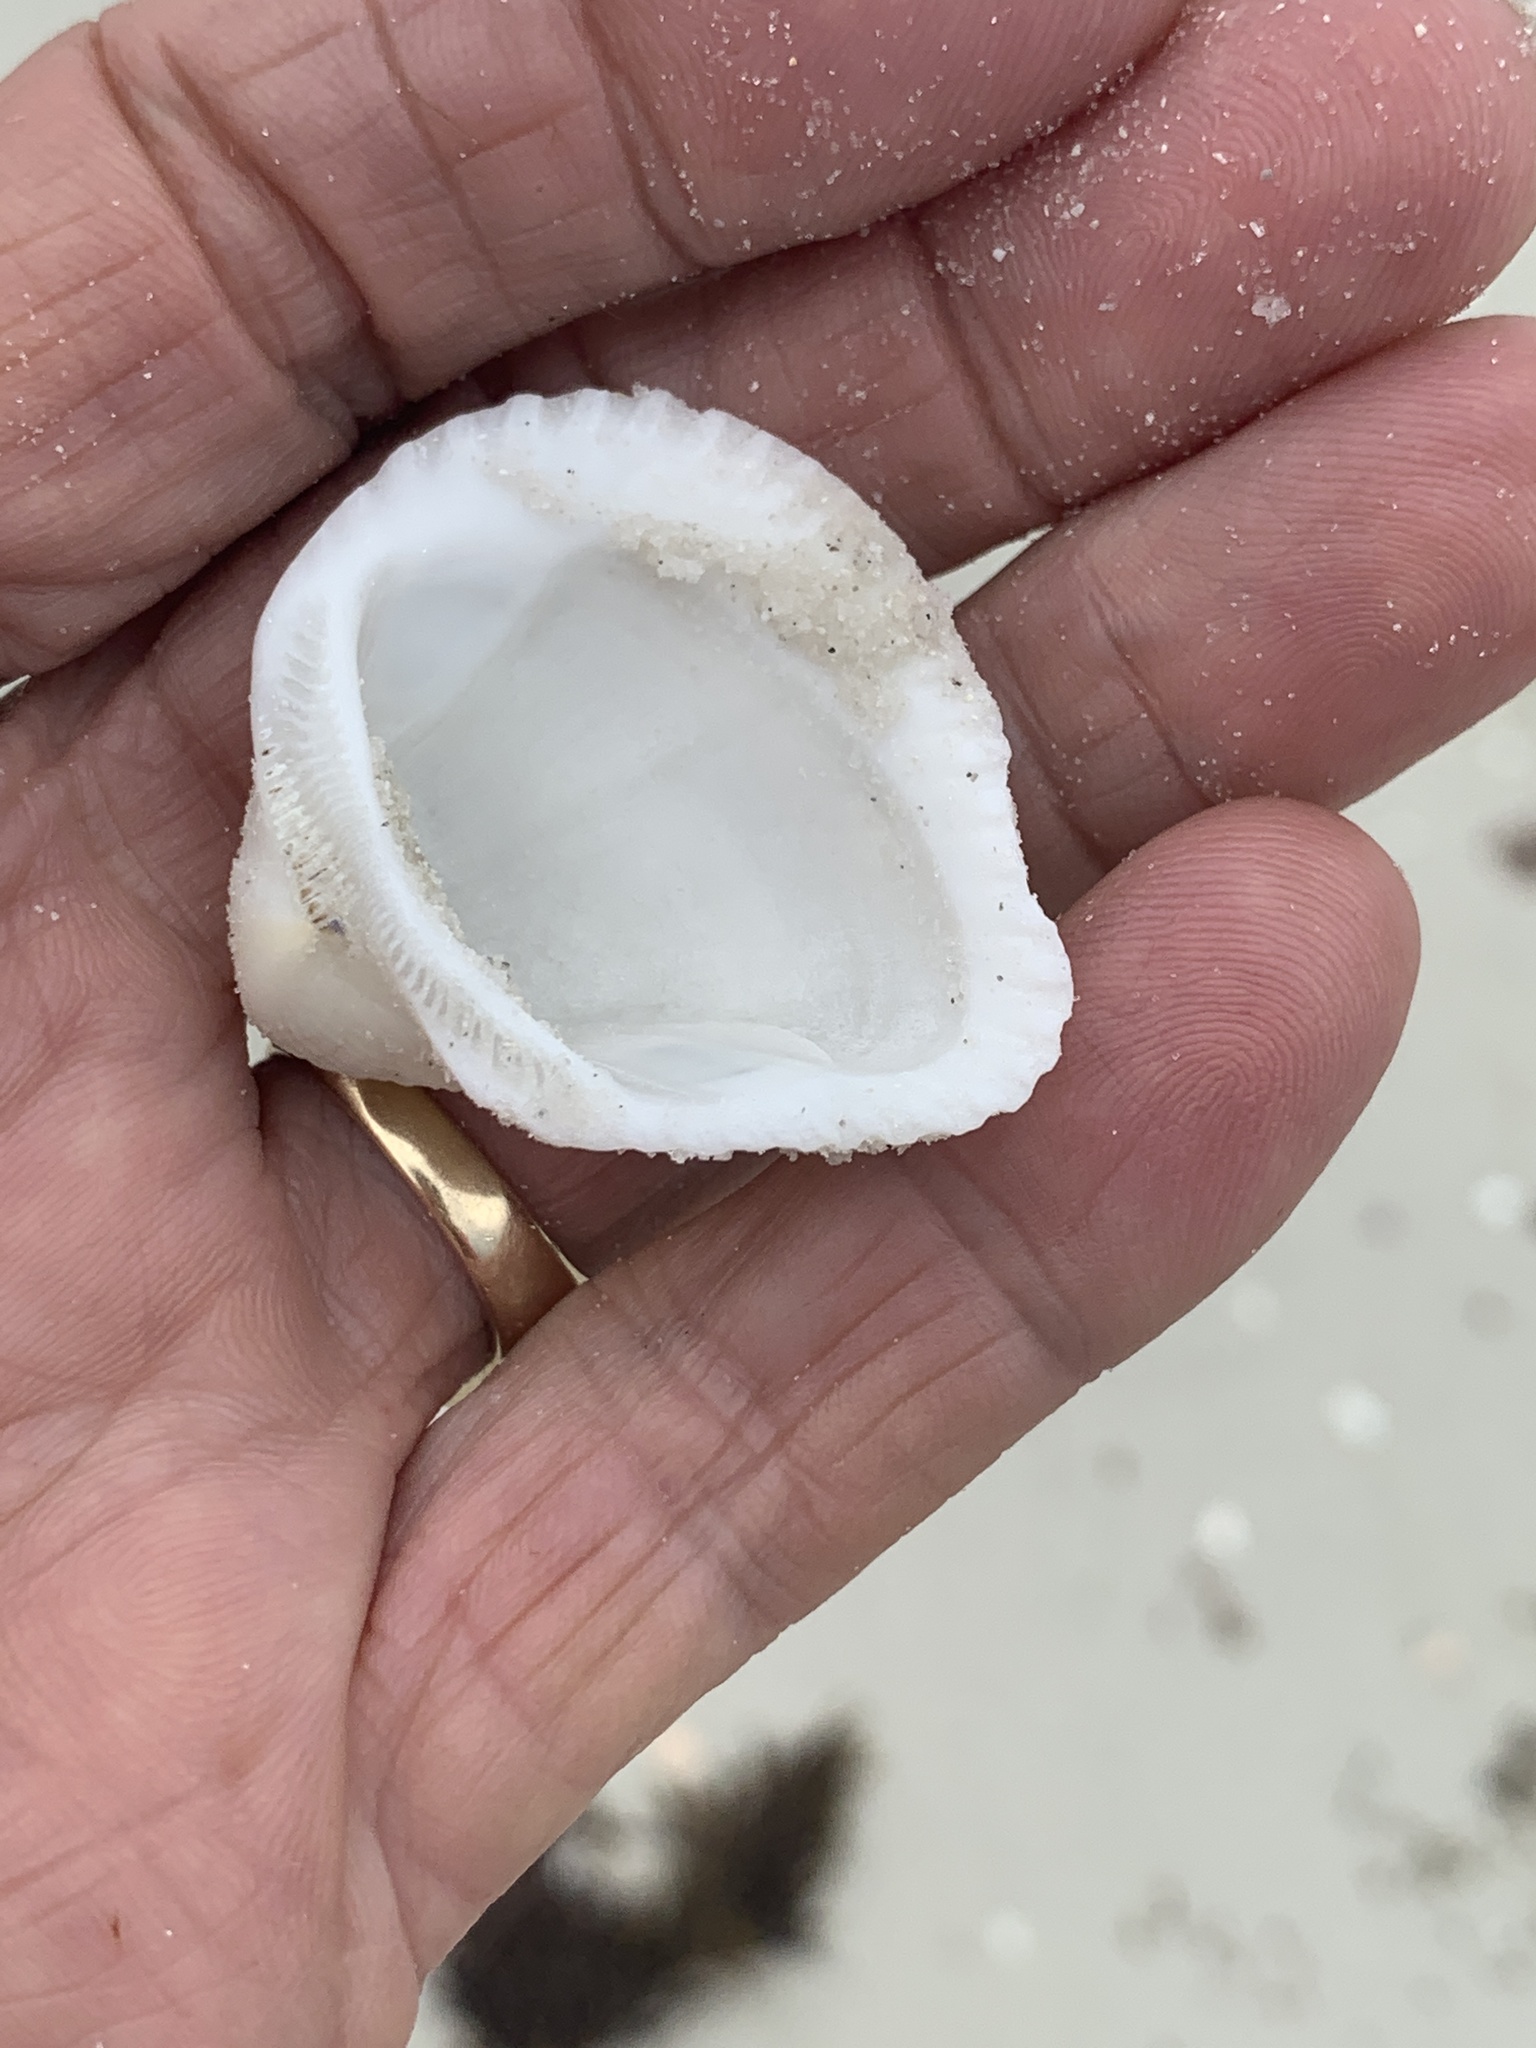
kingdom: Animalia
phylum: Mollusca
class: Bivalvia
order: Arcida
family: Noetiidae
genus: Noetia
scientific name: Noetia ponderosa
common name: Ponderous ark
